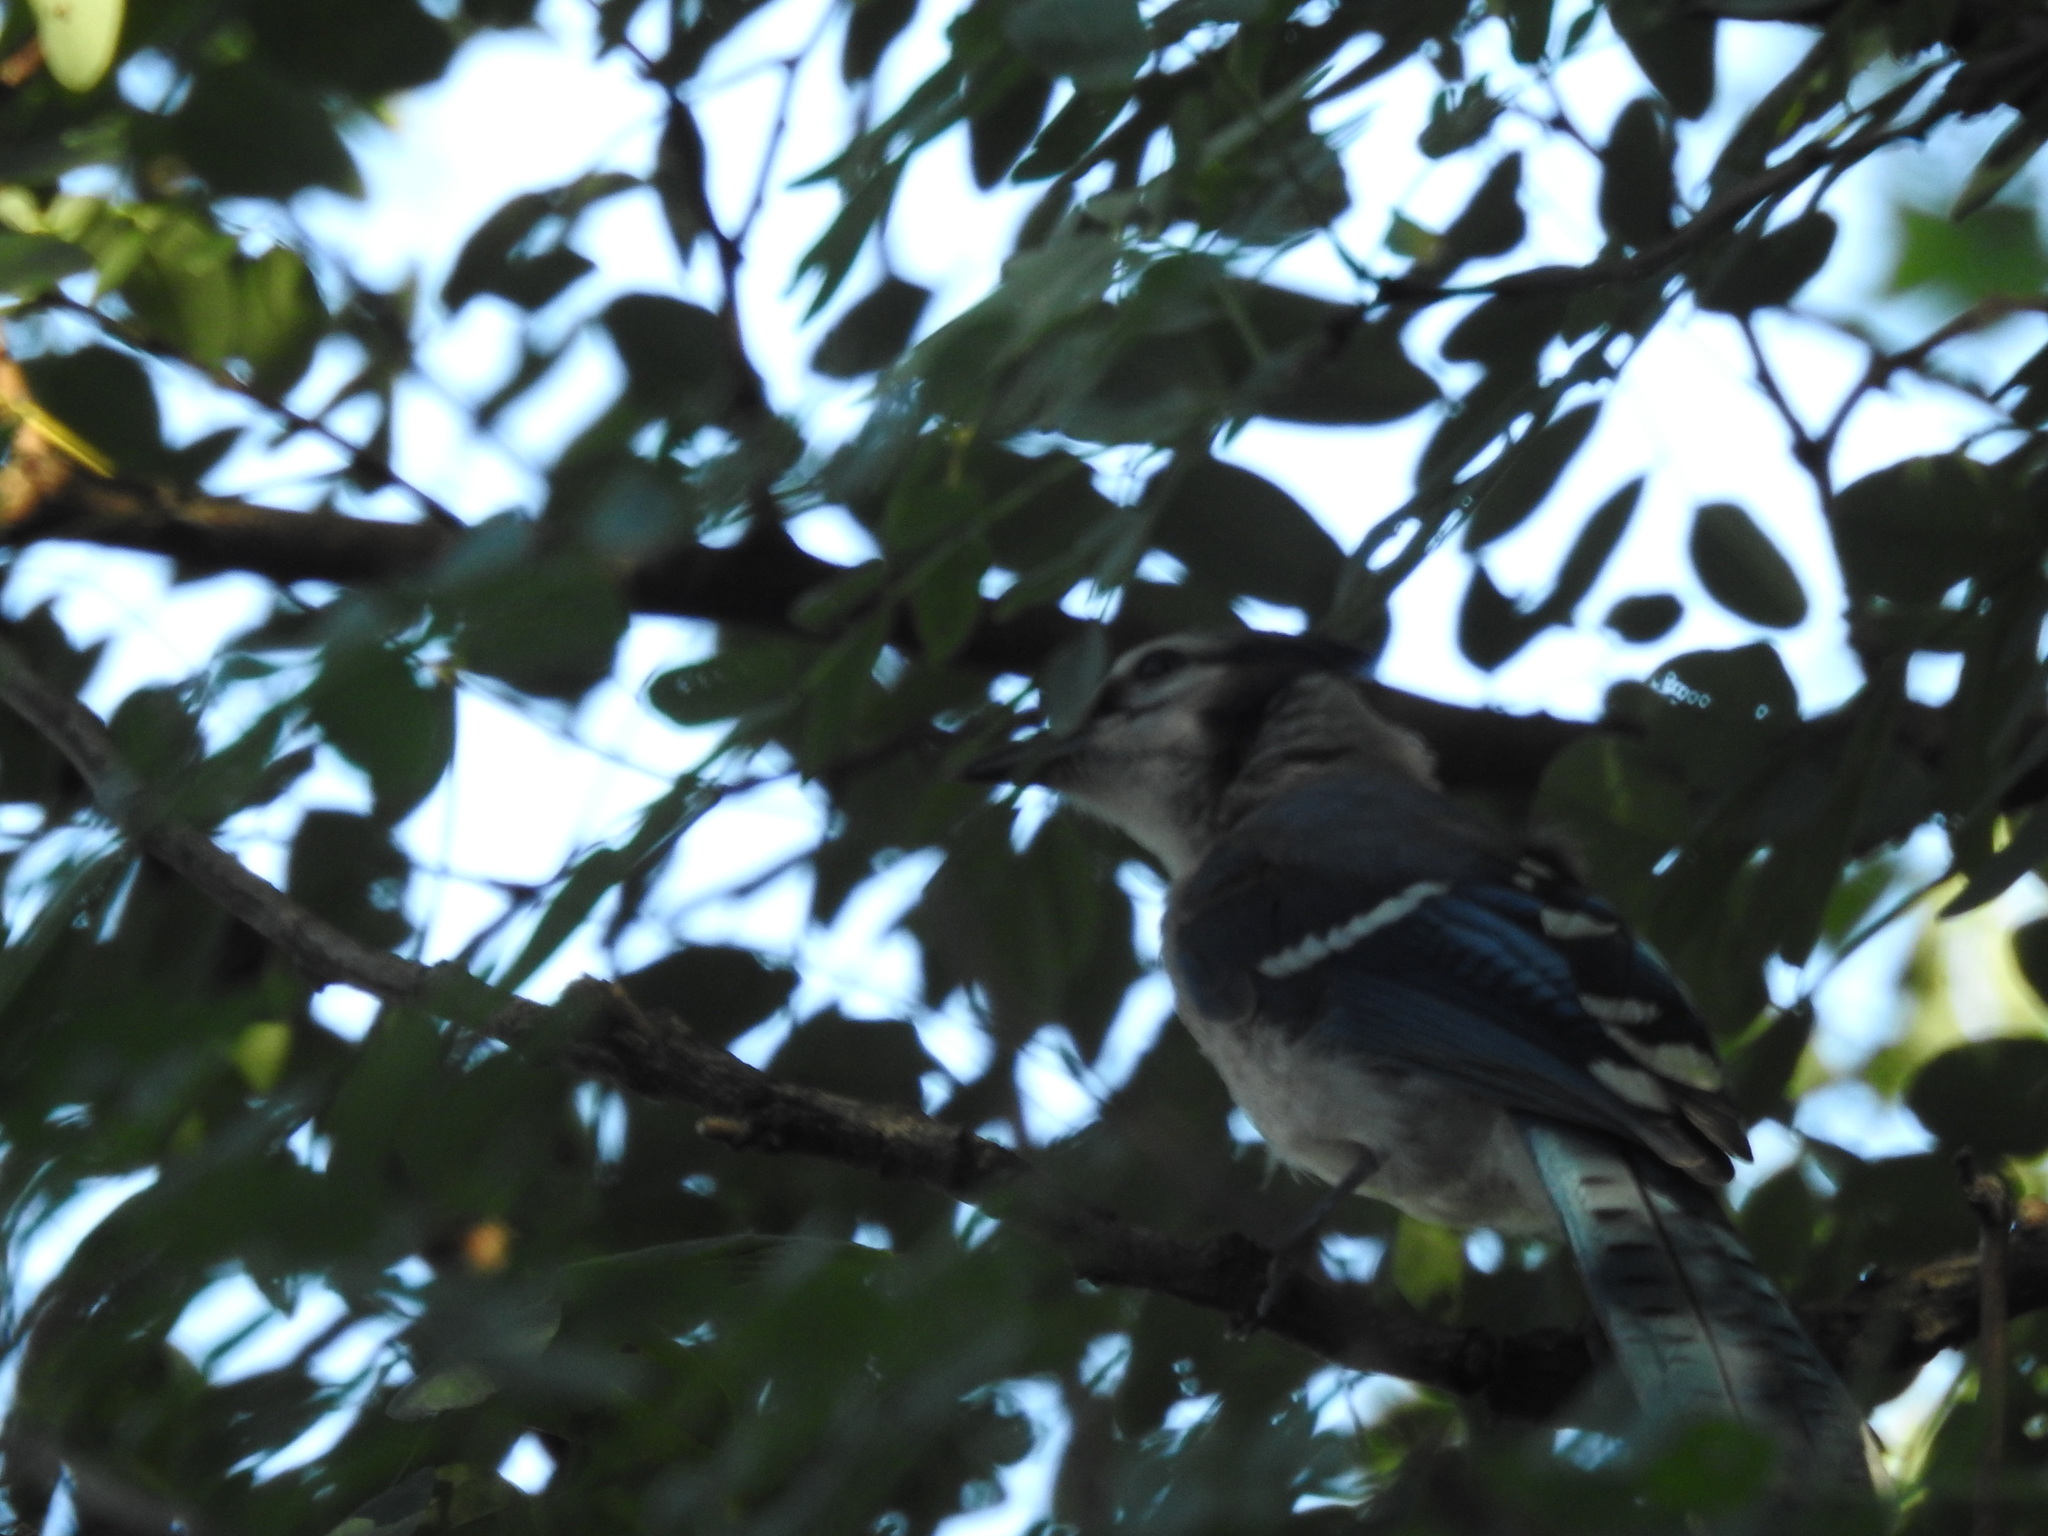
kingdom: Animalia
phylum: Chordata
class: Aves
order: Passeriformes
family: Corvidae
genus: Cyanocitta
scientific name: Cyanocitta cristata
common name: Blue jay
